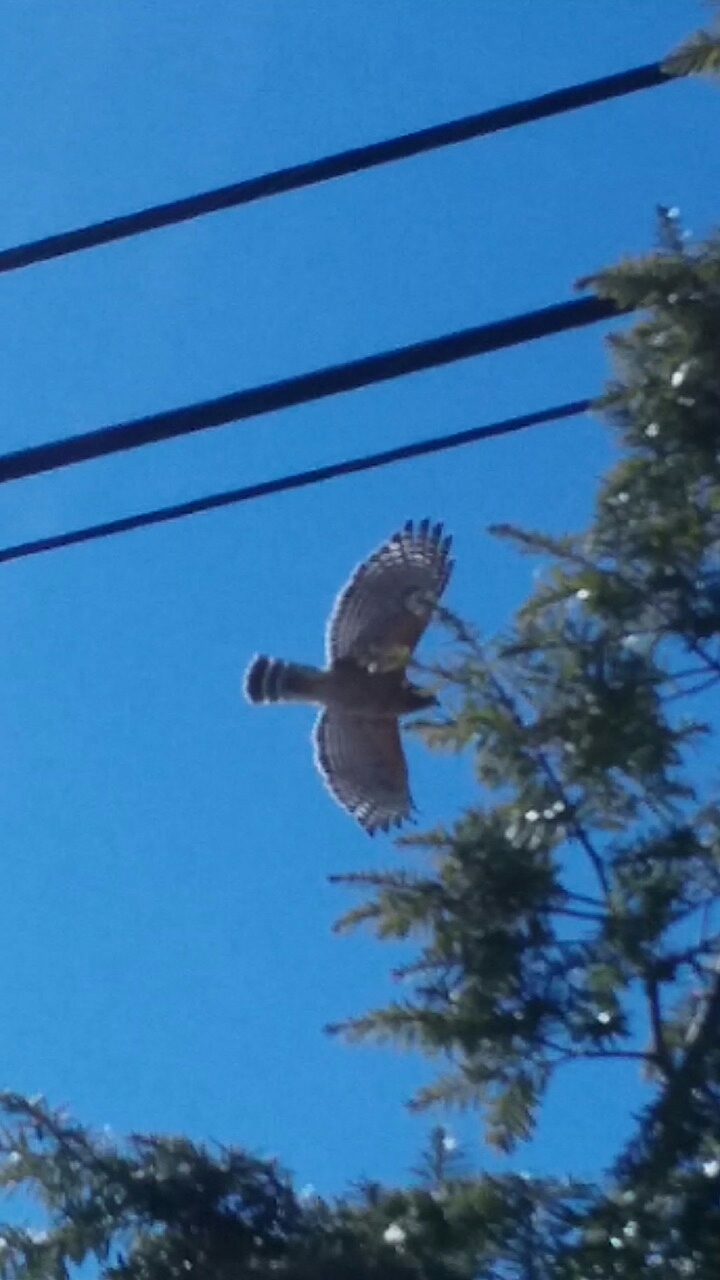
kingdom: Animalia
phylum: Chordata
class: Aves
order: Accipitriformes
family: Accipitridae
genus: Buteo
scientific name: Buteo lineatus
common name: Red-shouldered hawk
